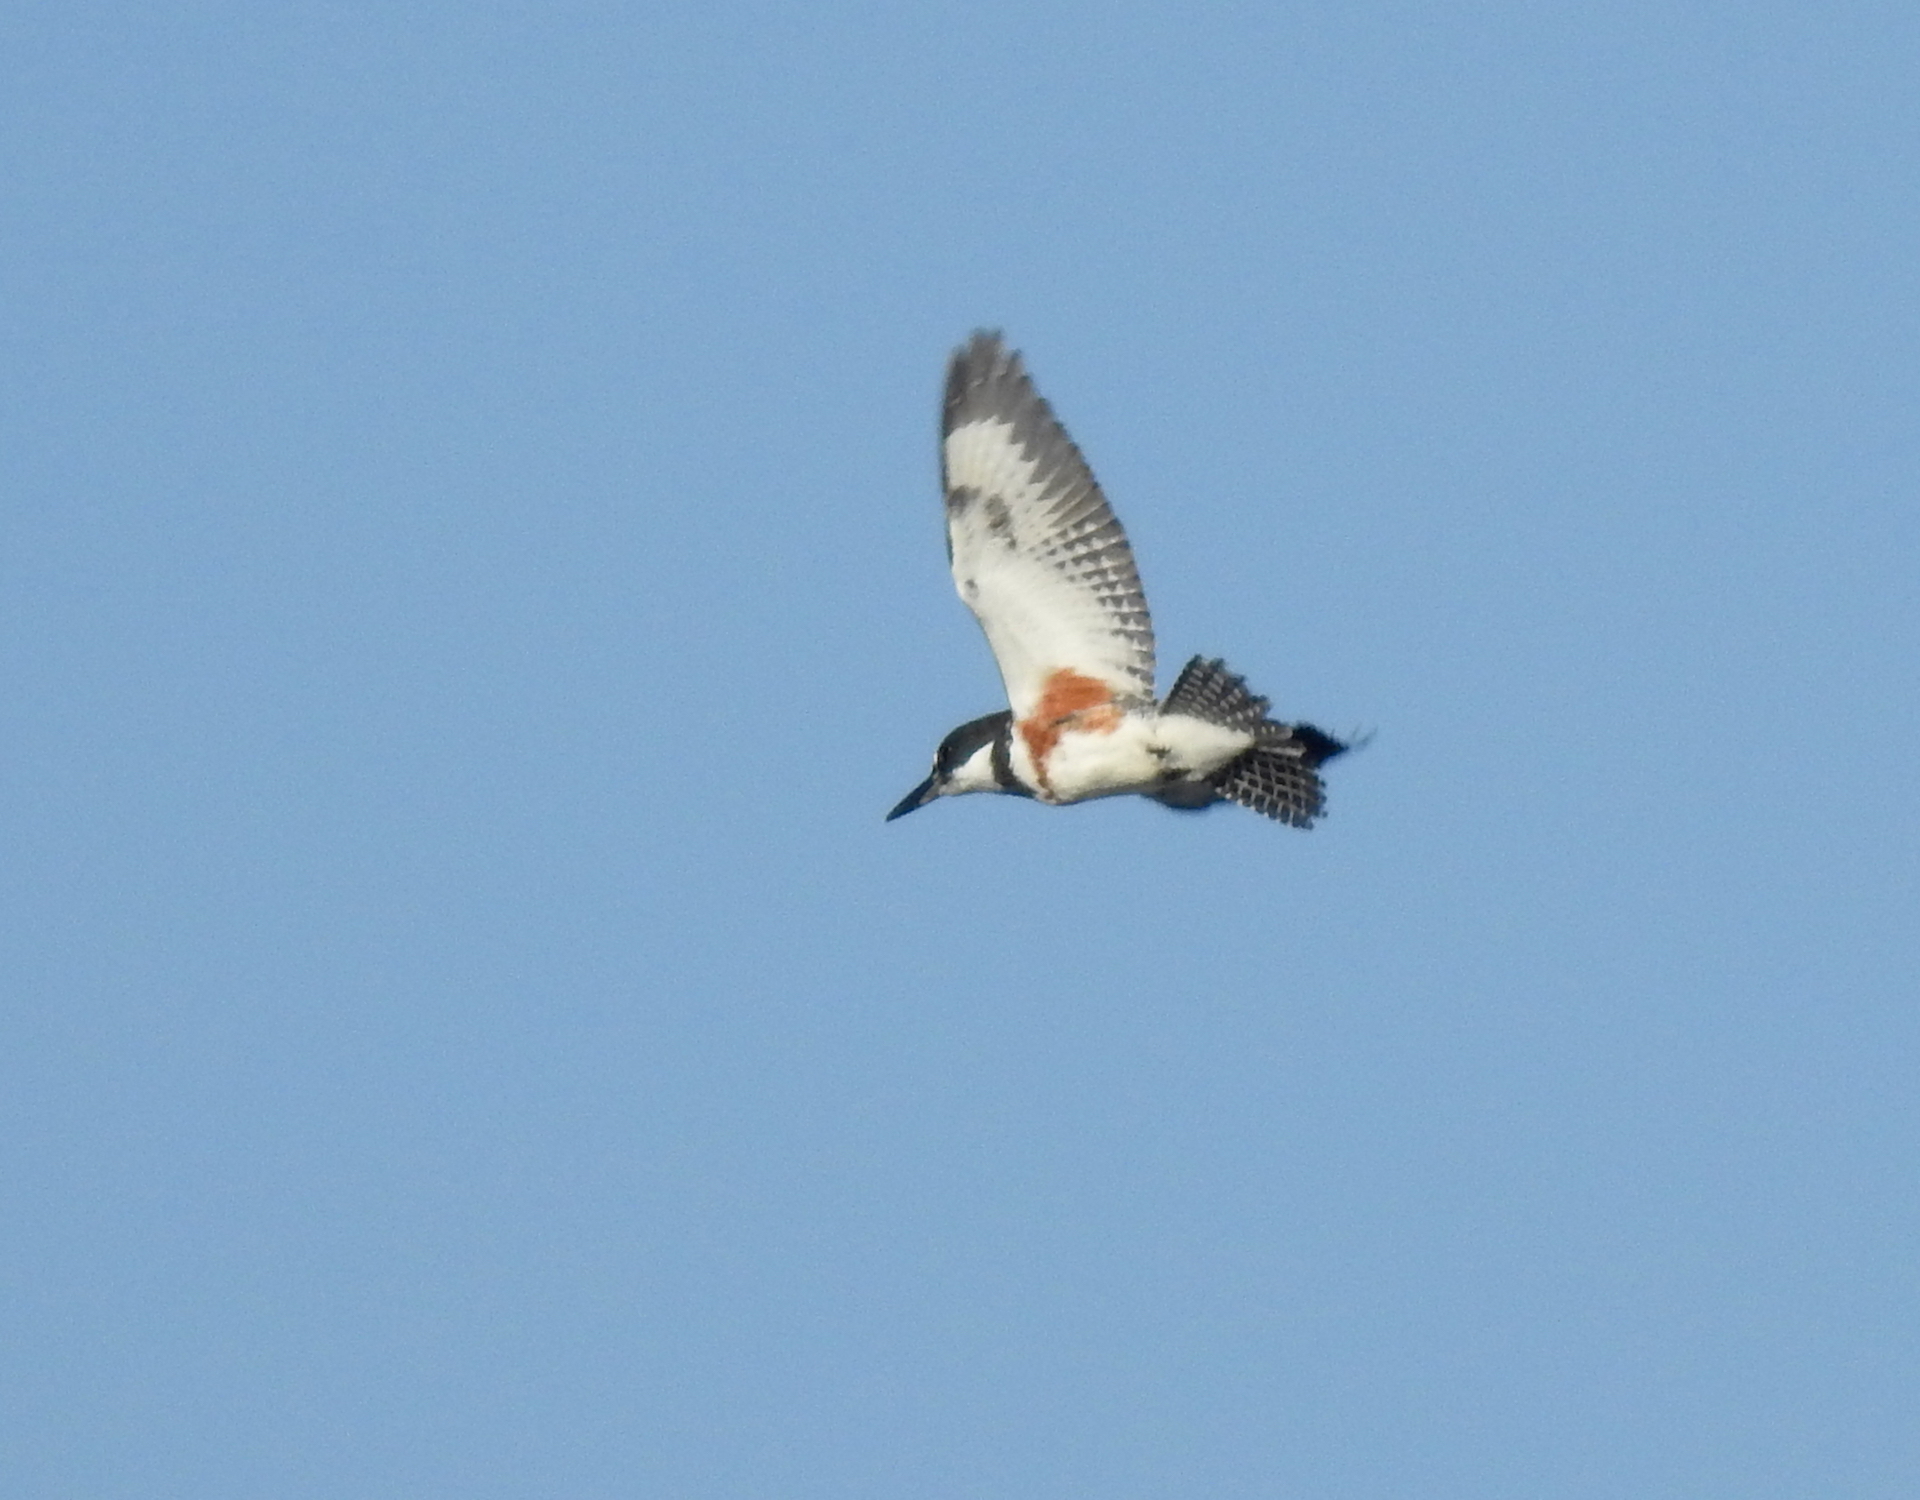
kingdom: Animalia
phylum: Chordata
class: Aves
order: Coraciiformes
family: Alcedinidae
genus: Megaceryle
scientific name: Megaceryle alcyon
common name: Belted kingfisher
